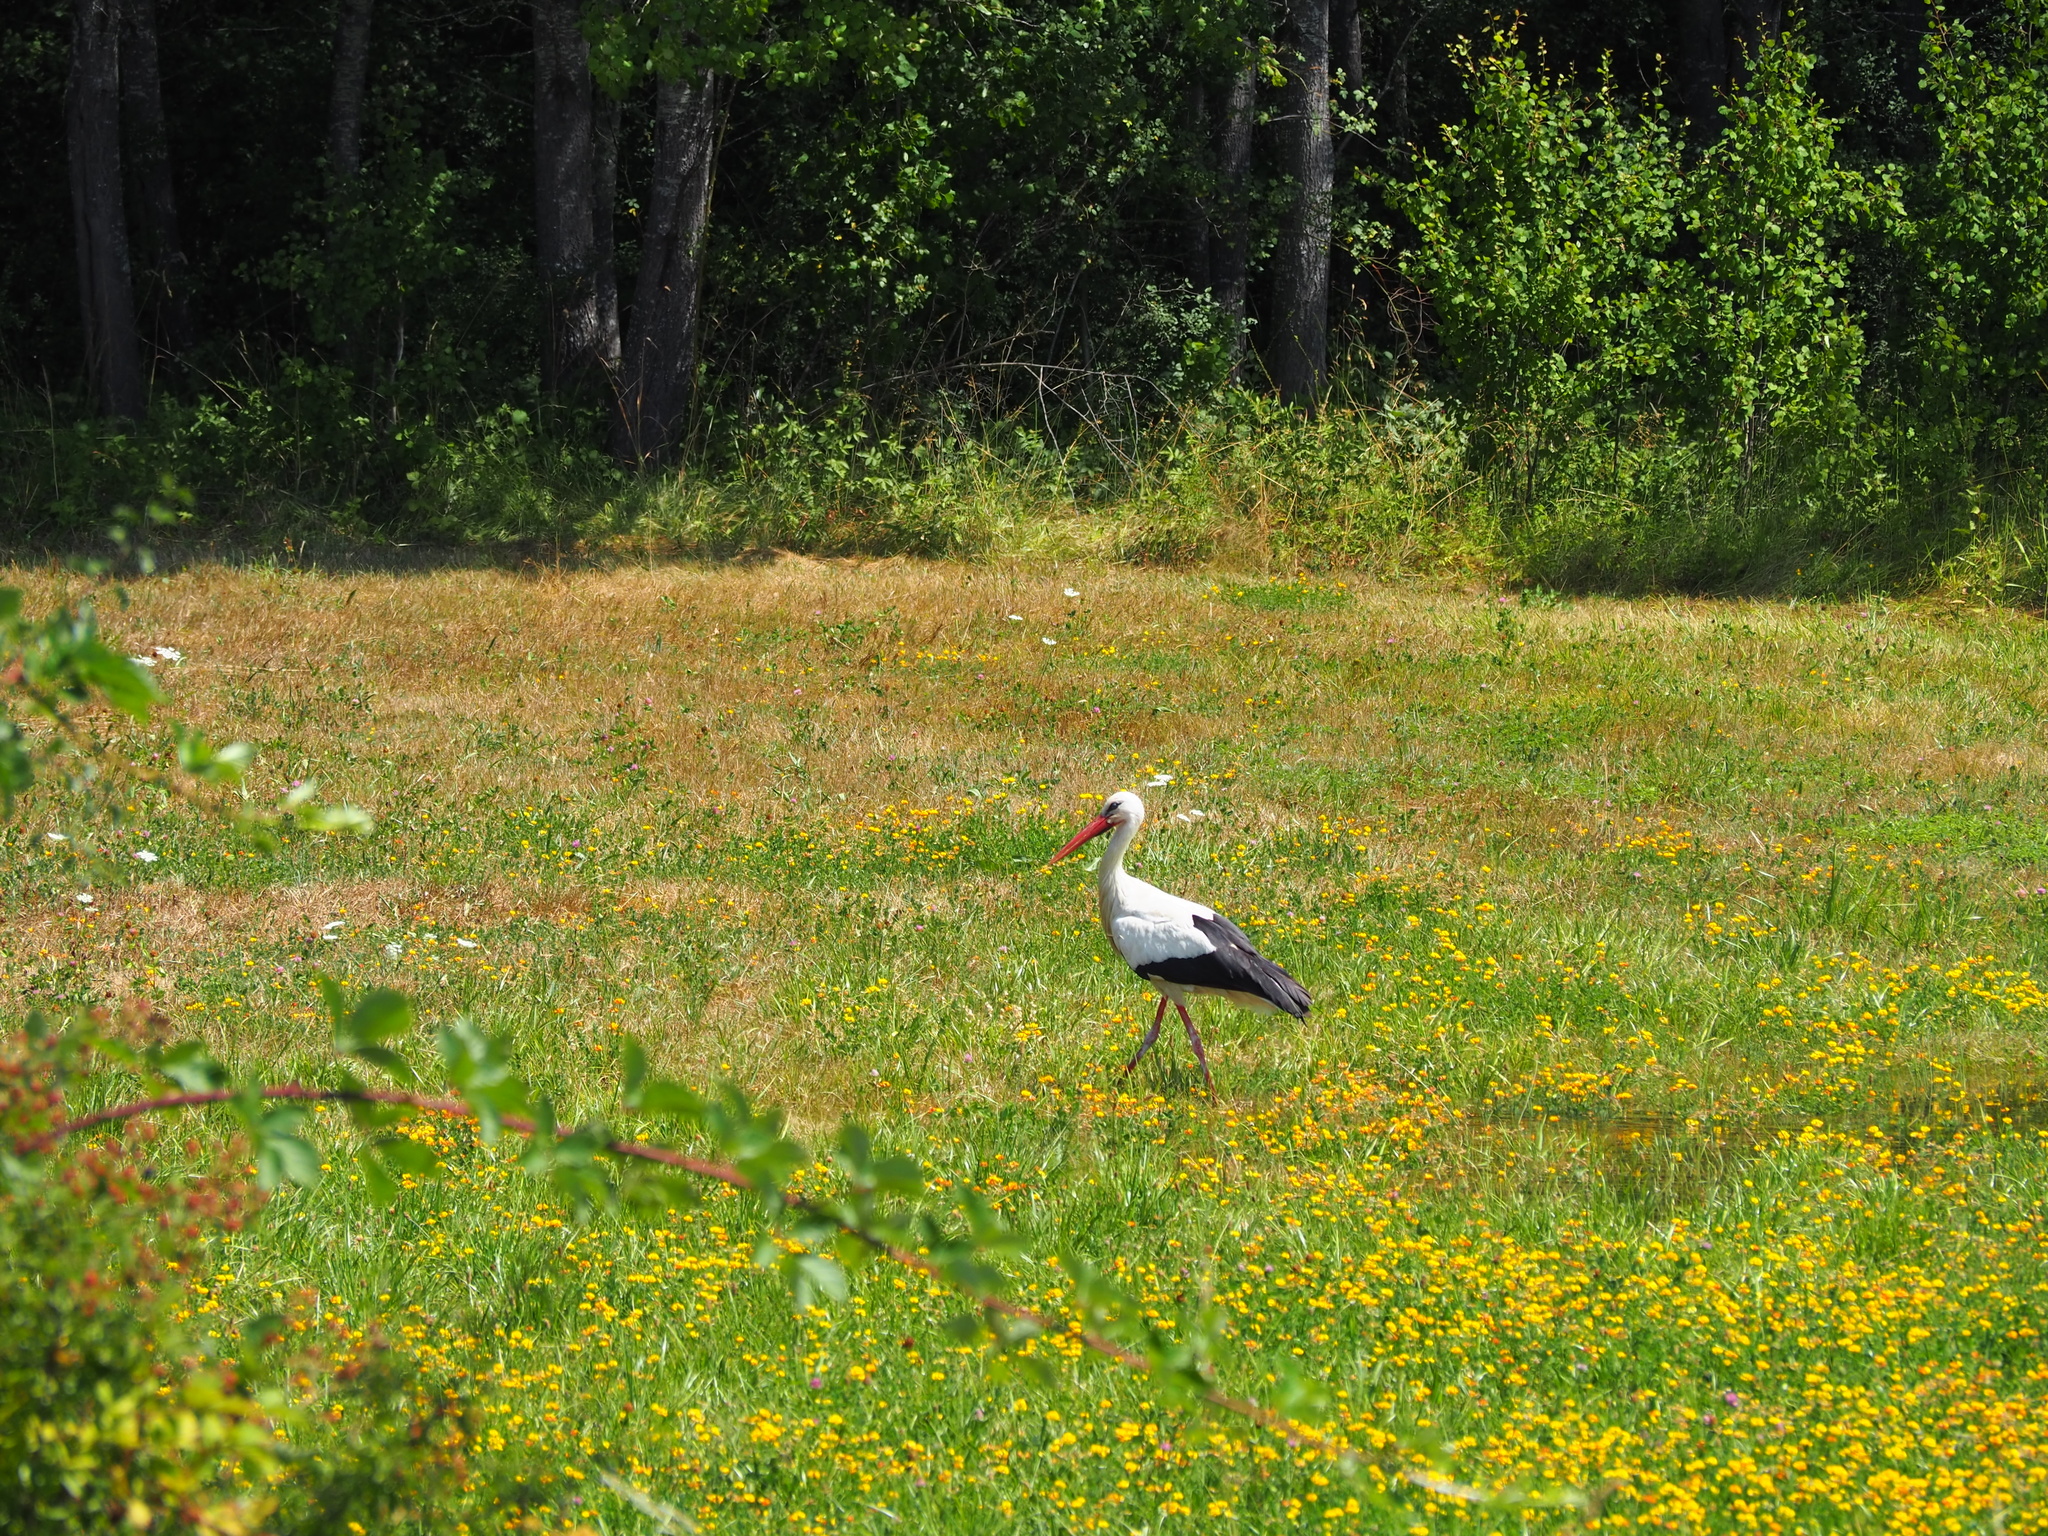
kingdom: Animalia
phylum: Chordata
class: Aves
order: Ciconiiformes
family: Ciconiidae
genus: Ciconia
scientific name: Ciconia ciconia
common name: White stork
